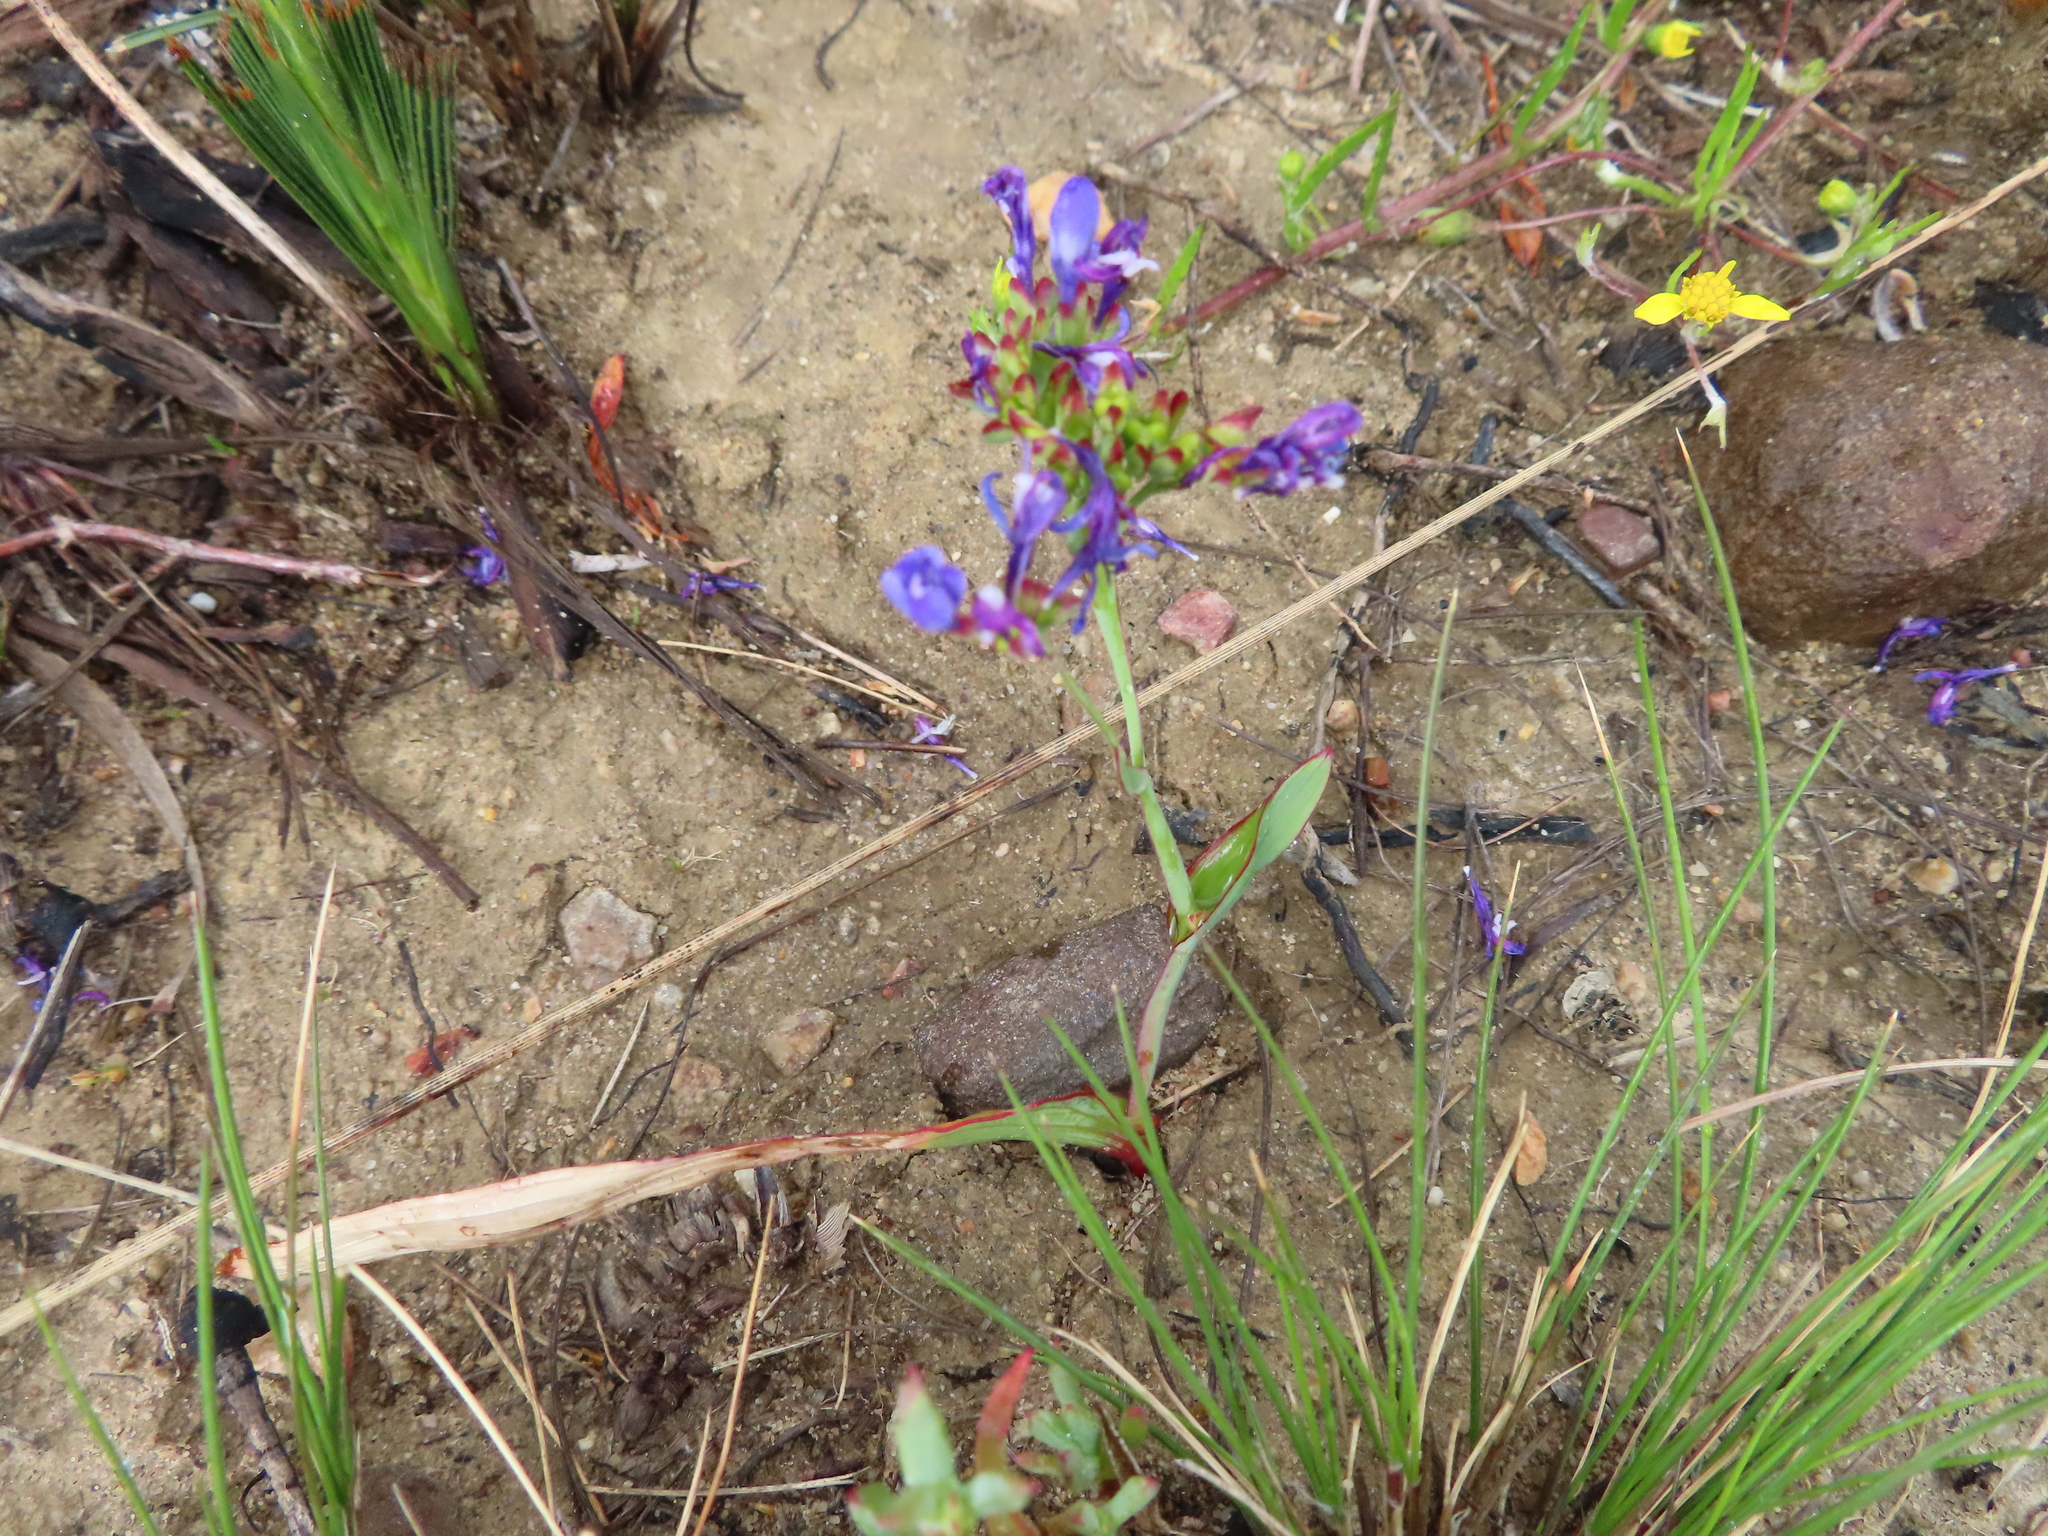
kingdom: Plantae
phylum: Tracheophyta
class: Liliopsida
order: Asparagales
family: Iridaceae
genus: Codonorhiza
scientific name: Codonorhiza corymbosa
